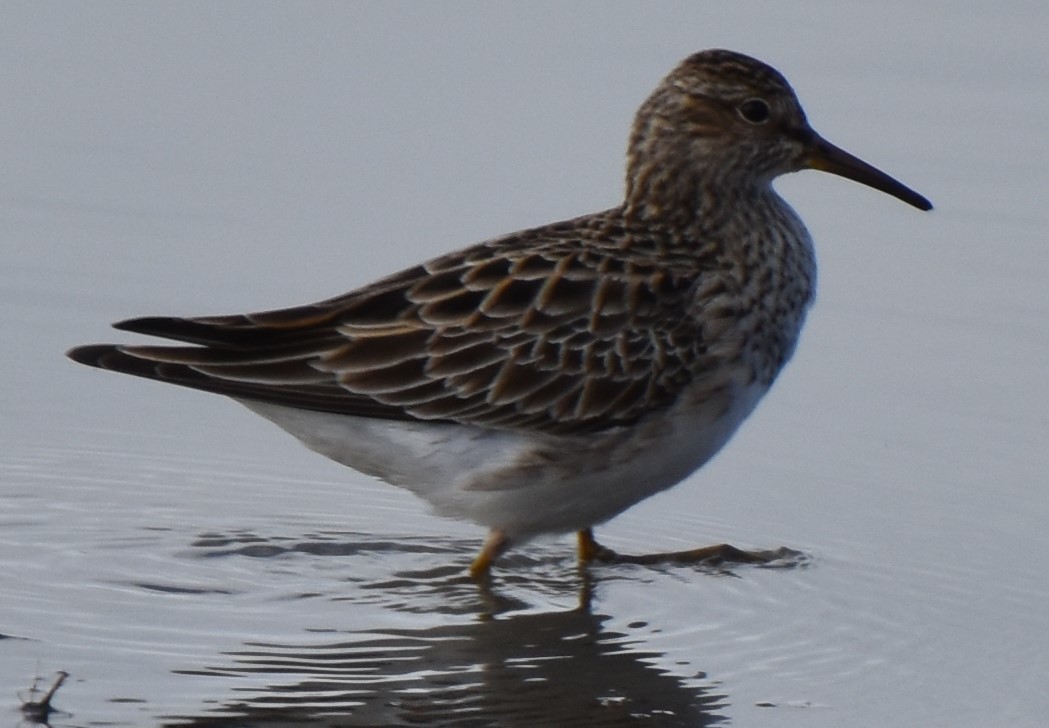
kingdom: Animalia
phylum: Chordata
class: Aves
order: Charadriiformes
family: Scolopacidae
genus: Calidris
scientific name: Calidris melanotos
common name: Pectoral sandpiper
